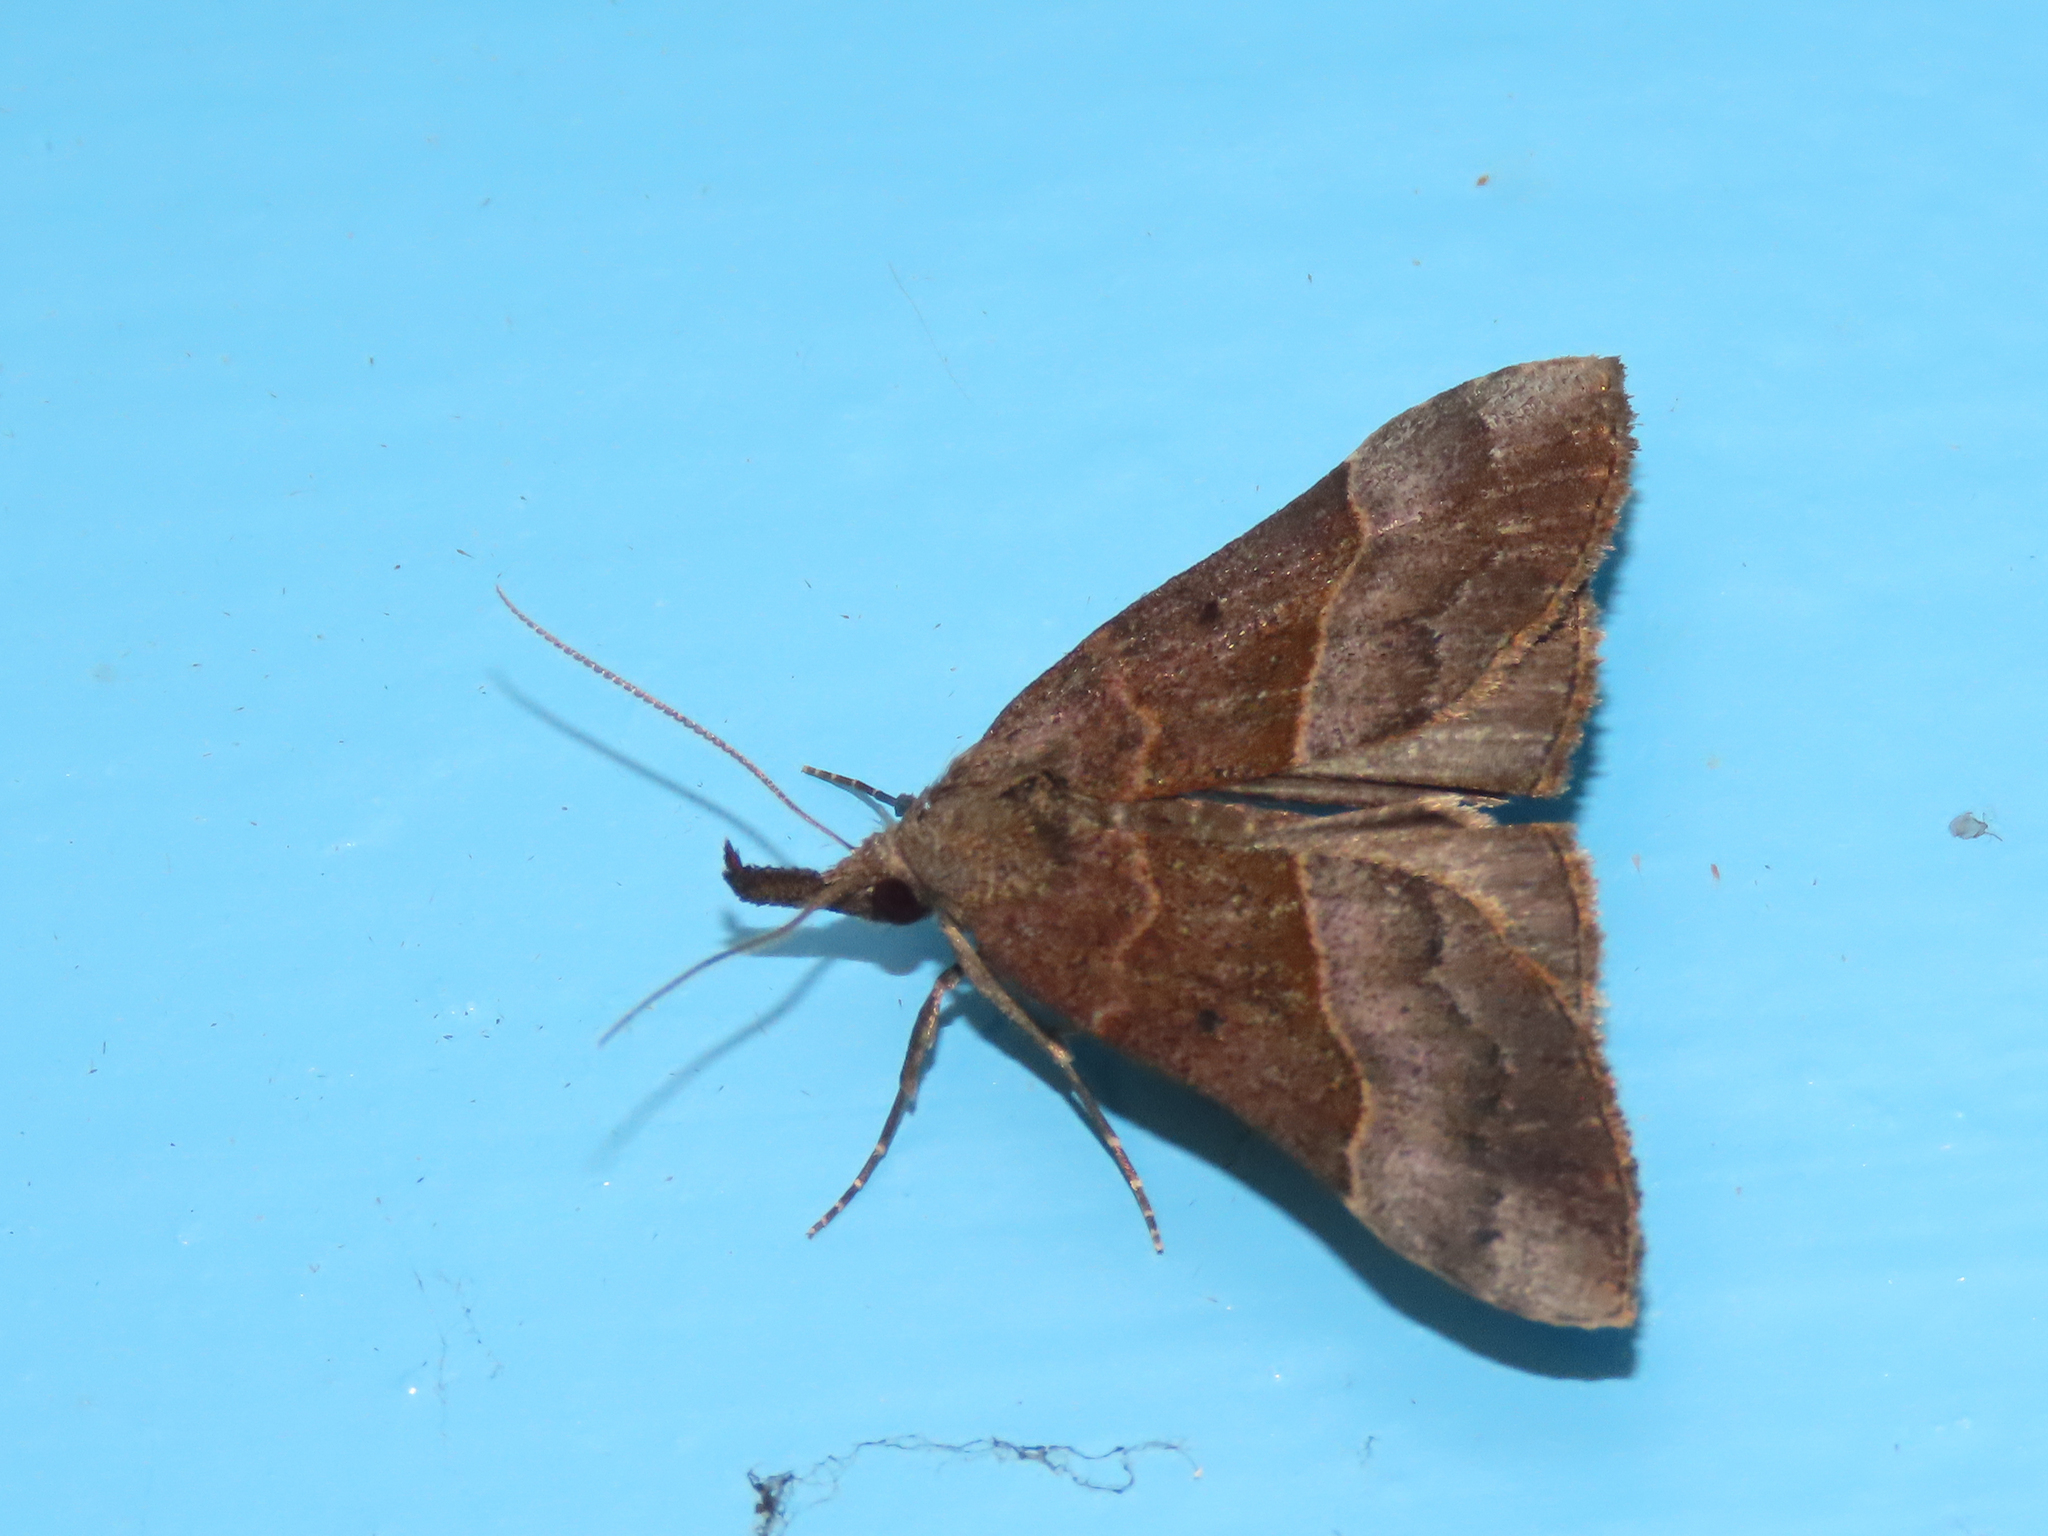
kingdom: Animalia
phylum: Arthropoda
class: Insecta
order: Lepidoptera
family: Erebidae
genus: Hypena
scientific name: Hypena eductalis
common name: Red-footed snout
